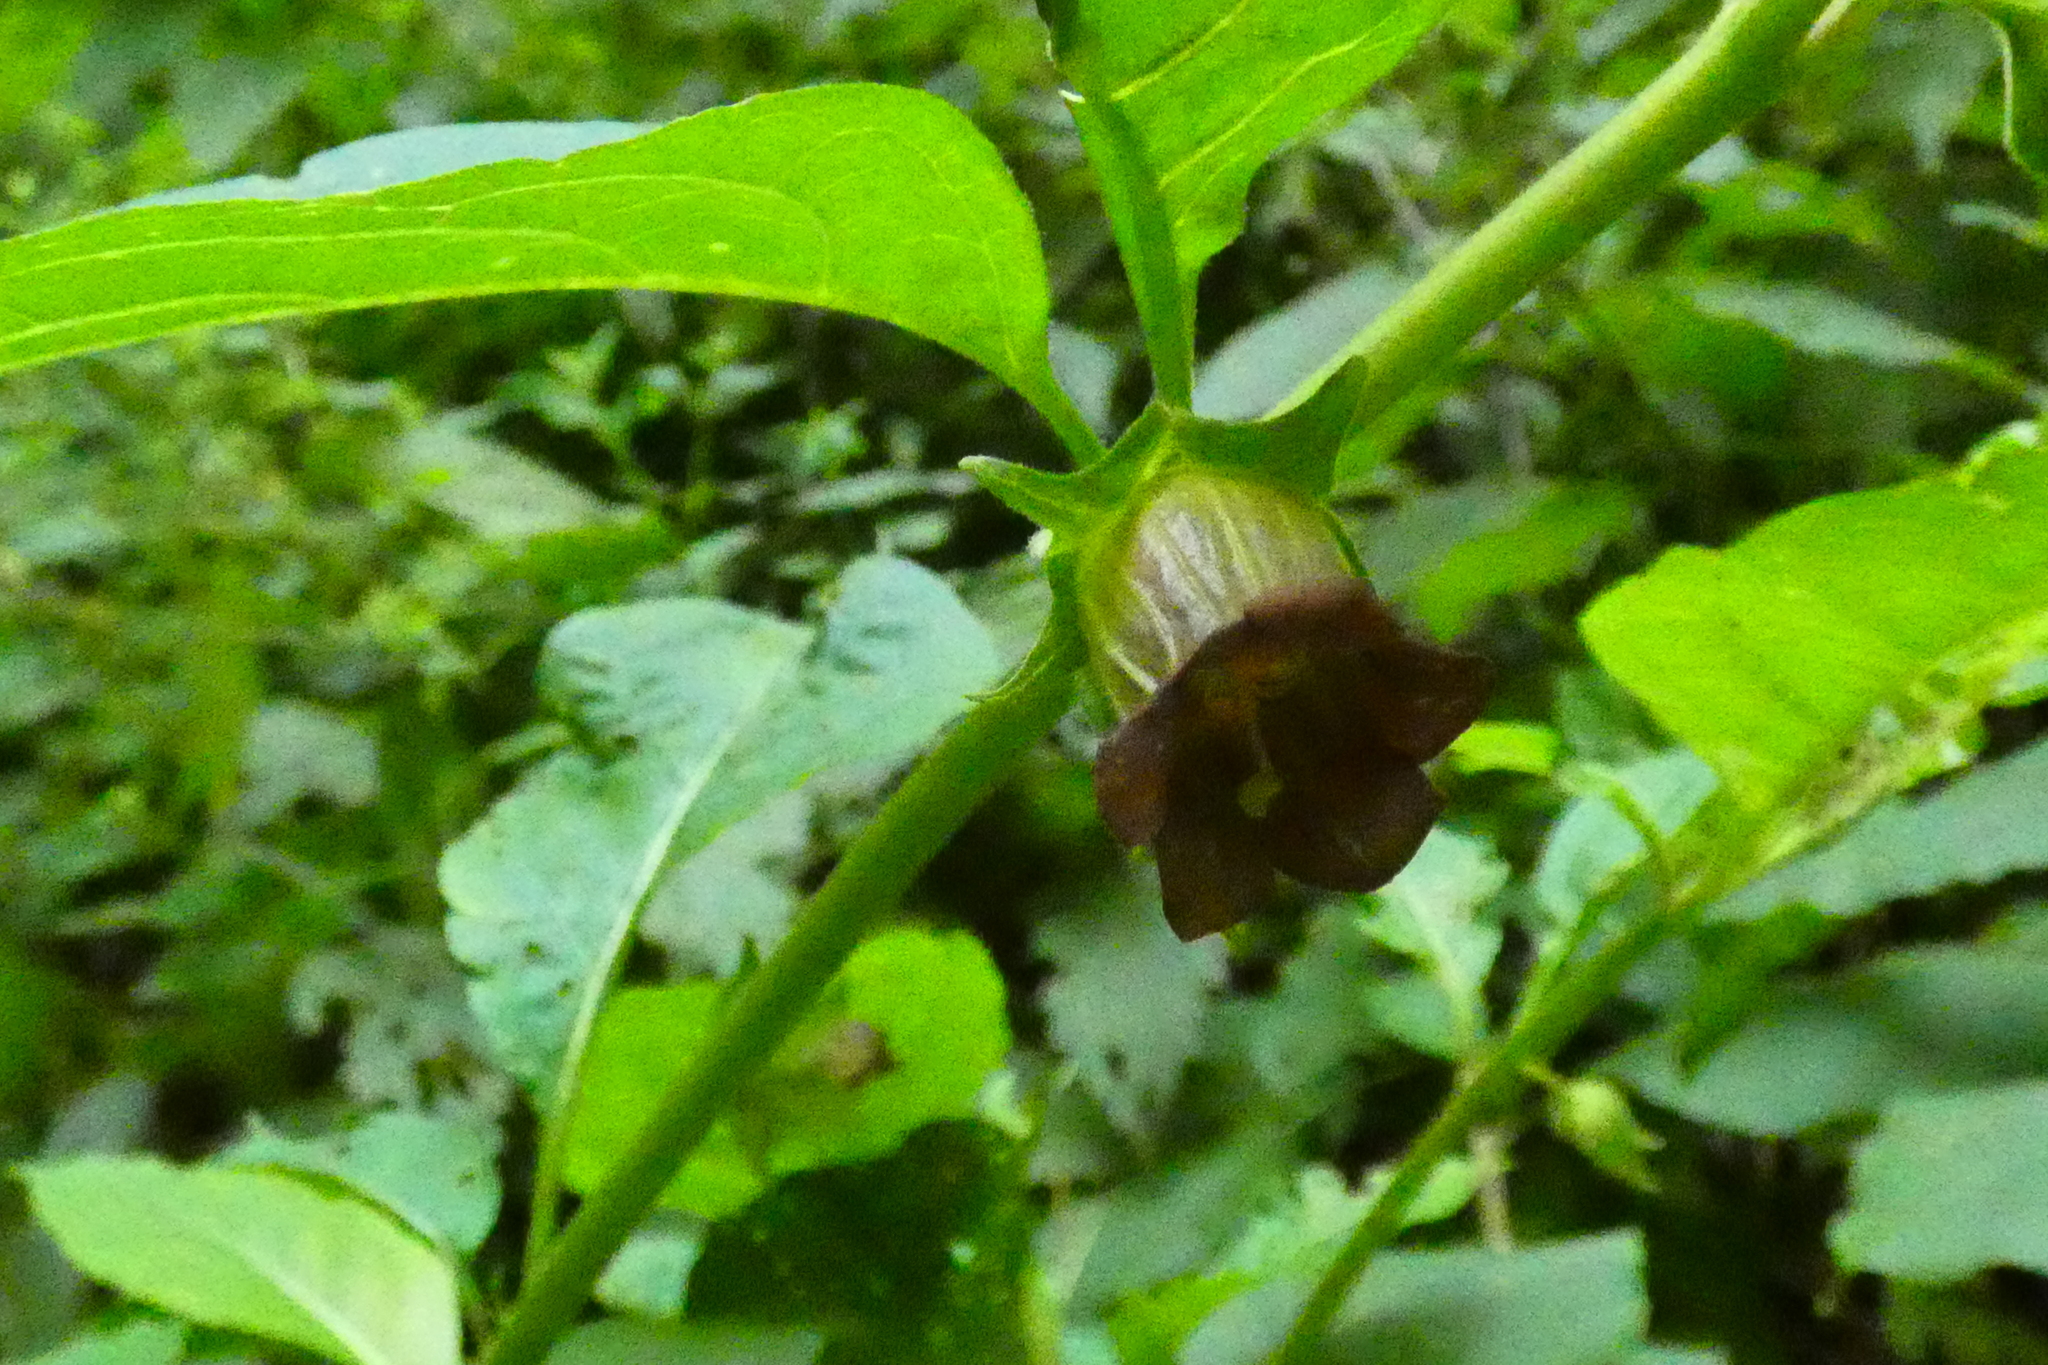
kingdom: Plantae
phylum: Tracheophyta
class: Magnoliopsida
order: Solanales
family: Solanaceae
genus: Atropa
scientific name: Atropa belladonna
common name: Deadly nightshade
